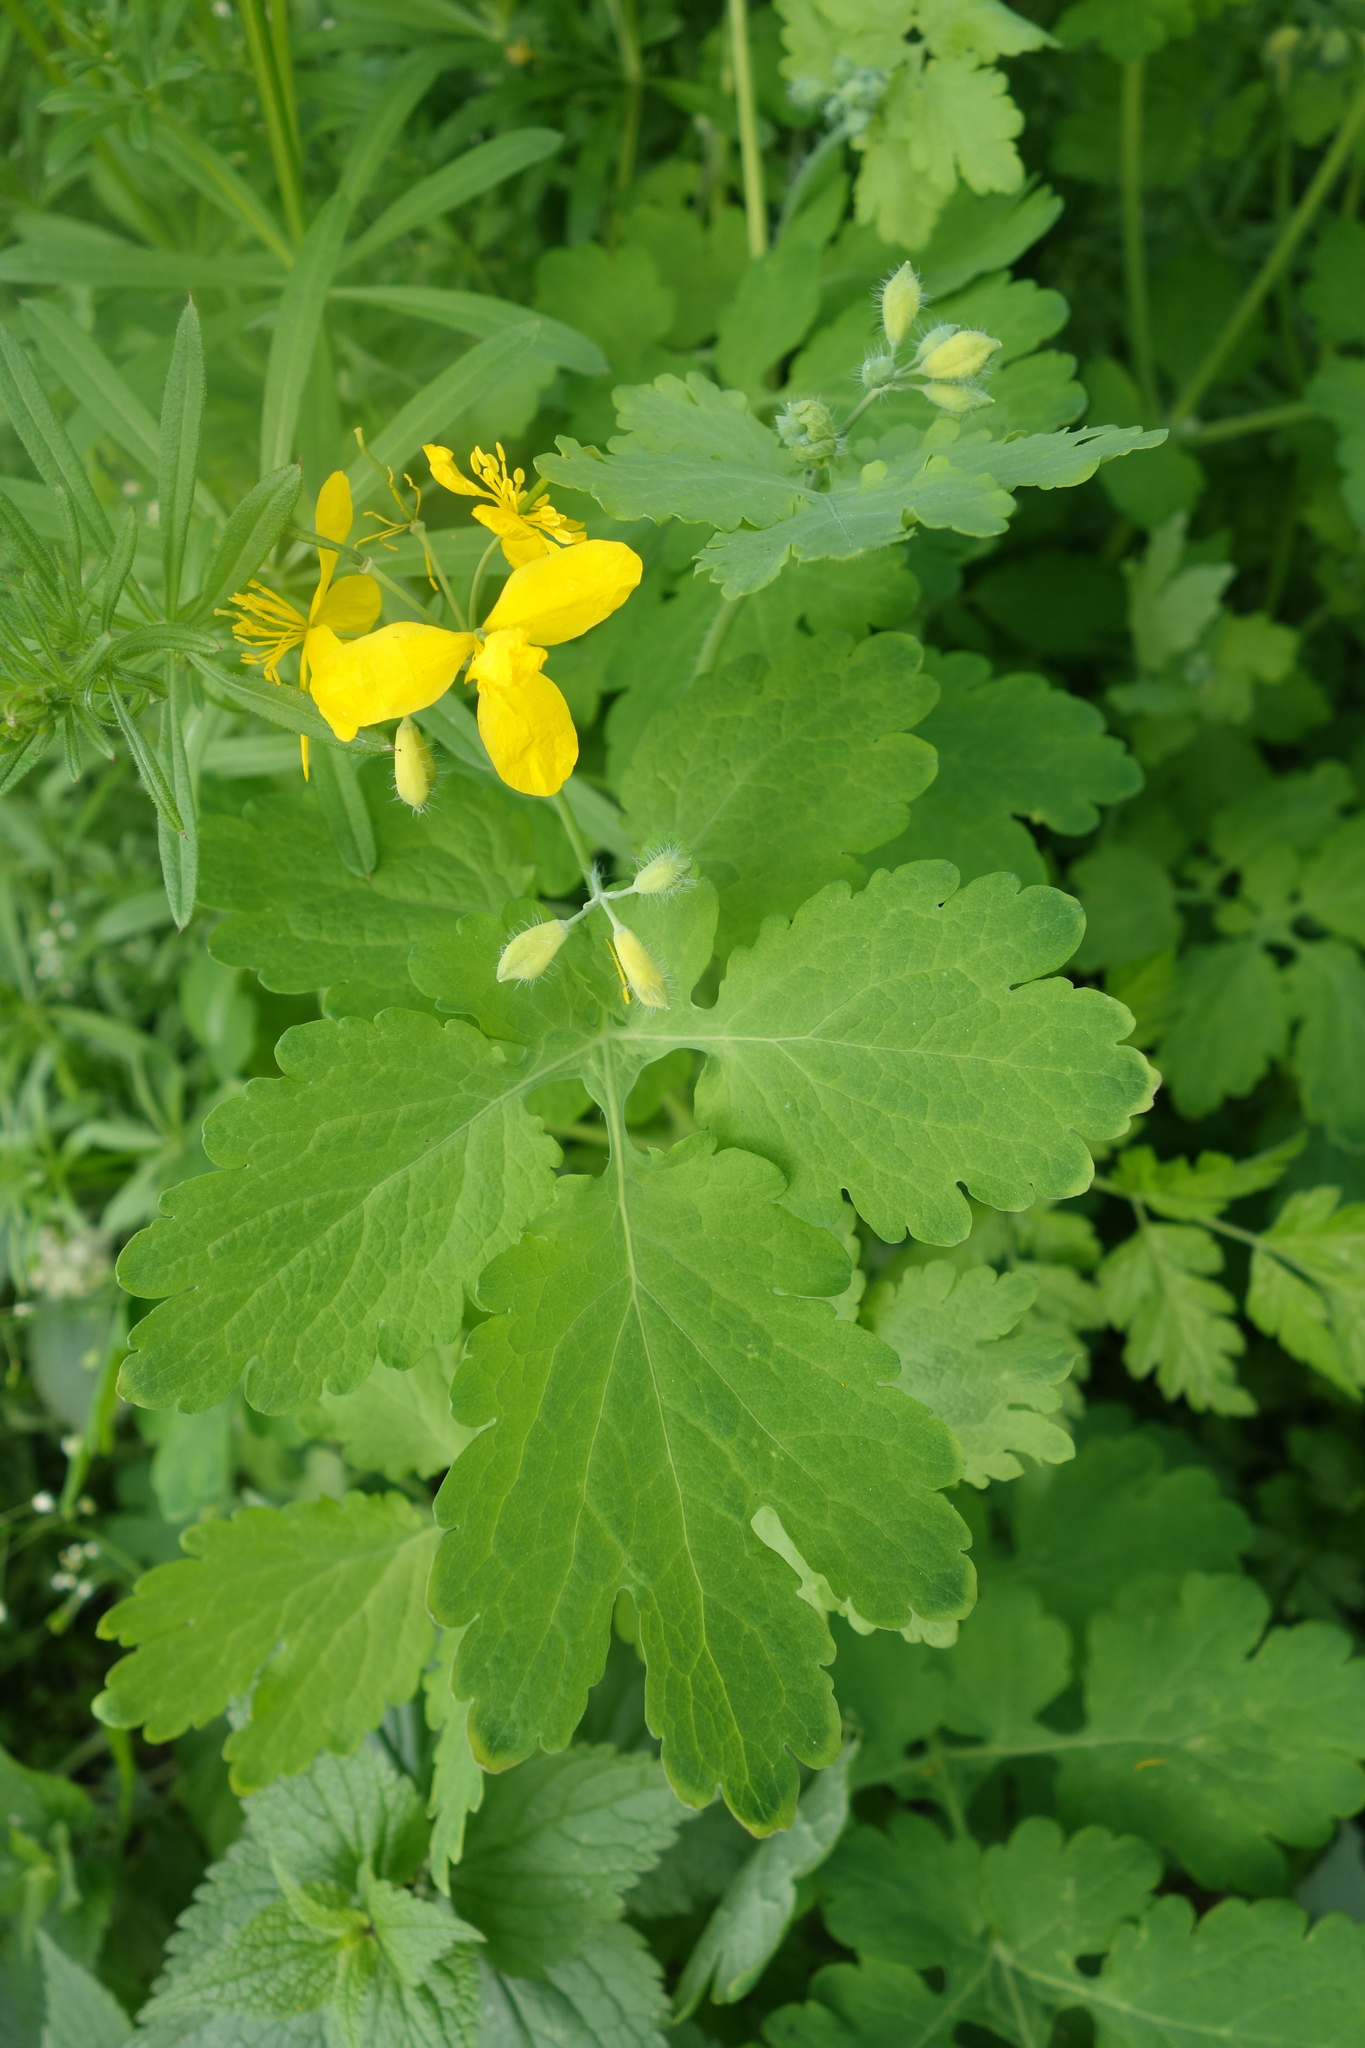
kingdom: Plantae
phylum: Tracheophyta
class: Magnoliopsida
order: Ranunculales
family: Papaveraceae
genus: Chelidonium
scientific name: Chelidonium majus
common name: Greater celandine
